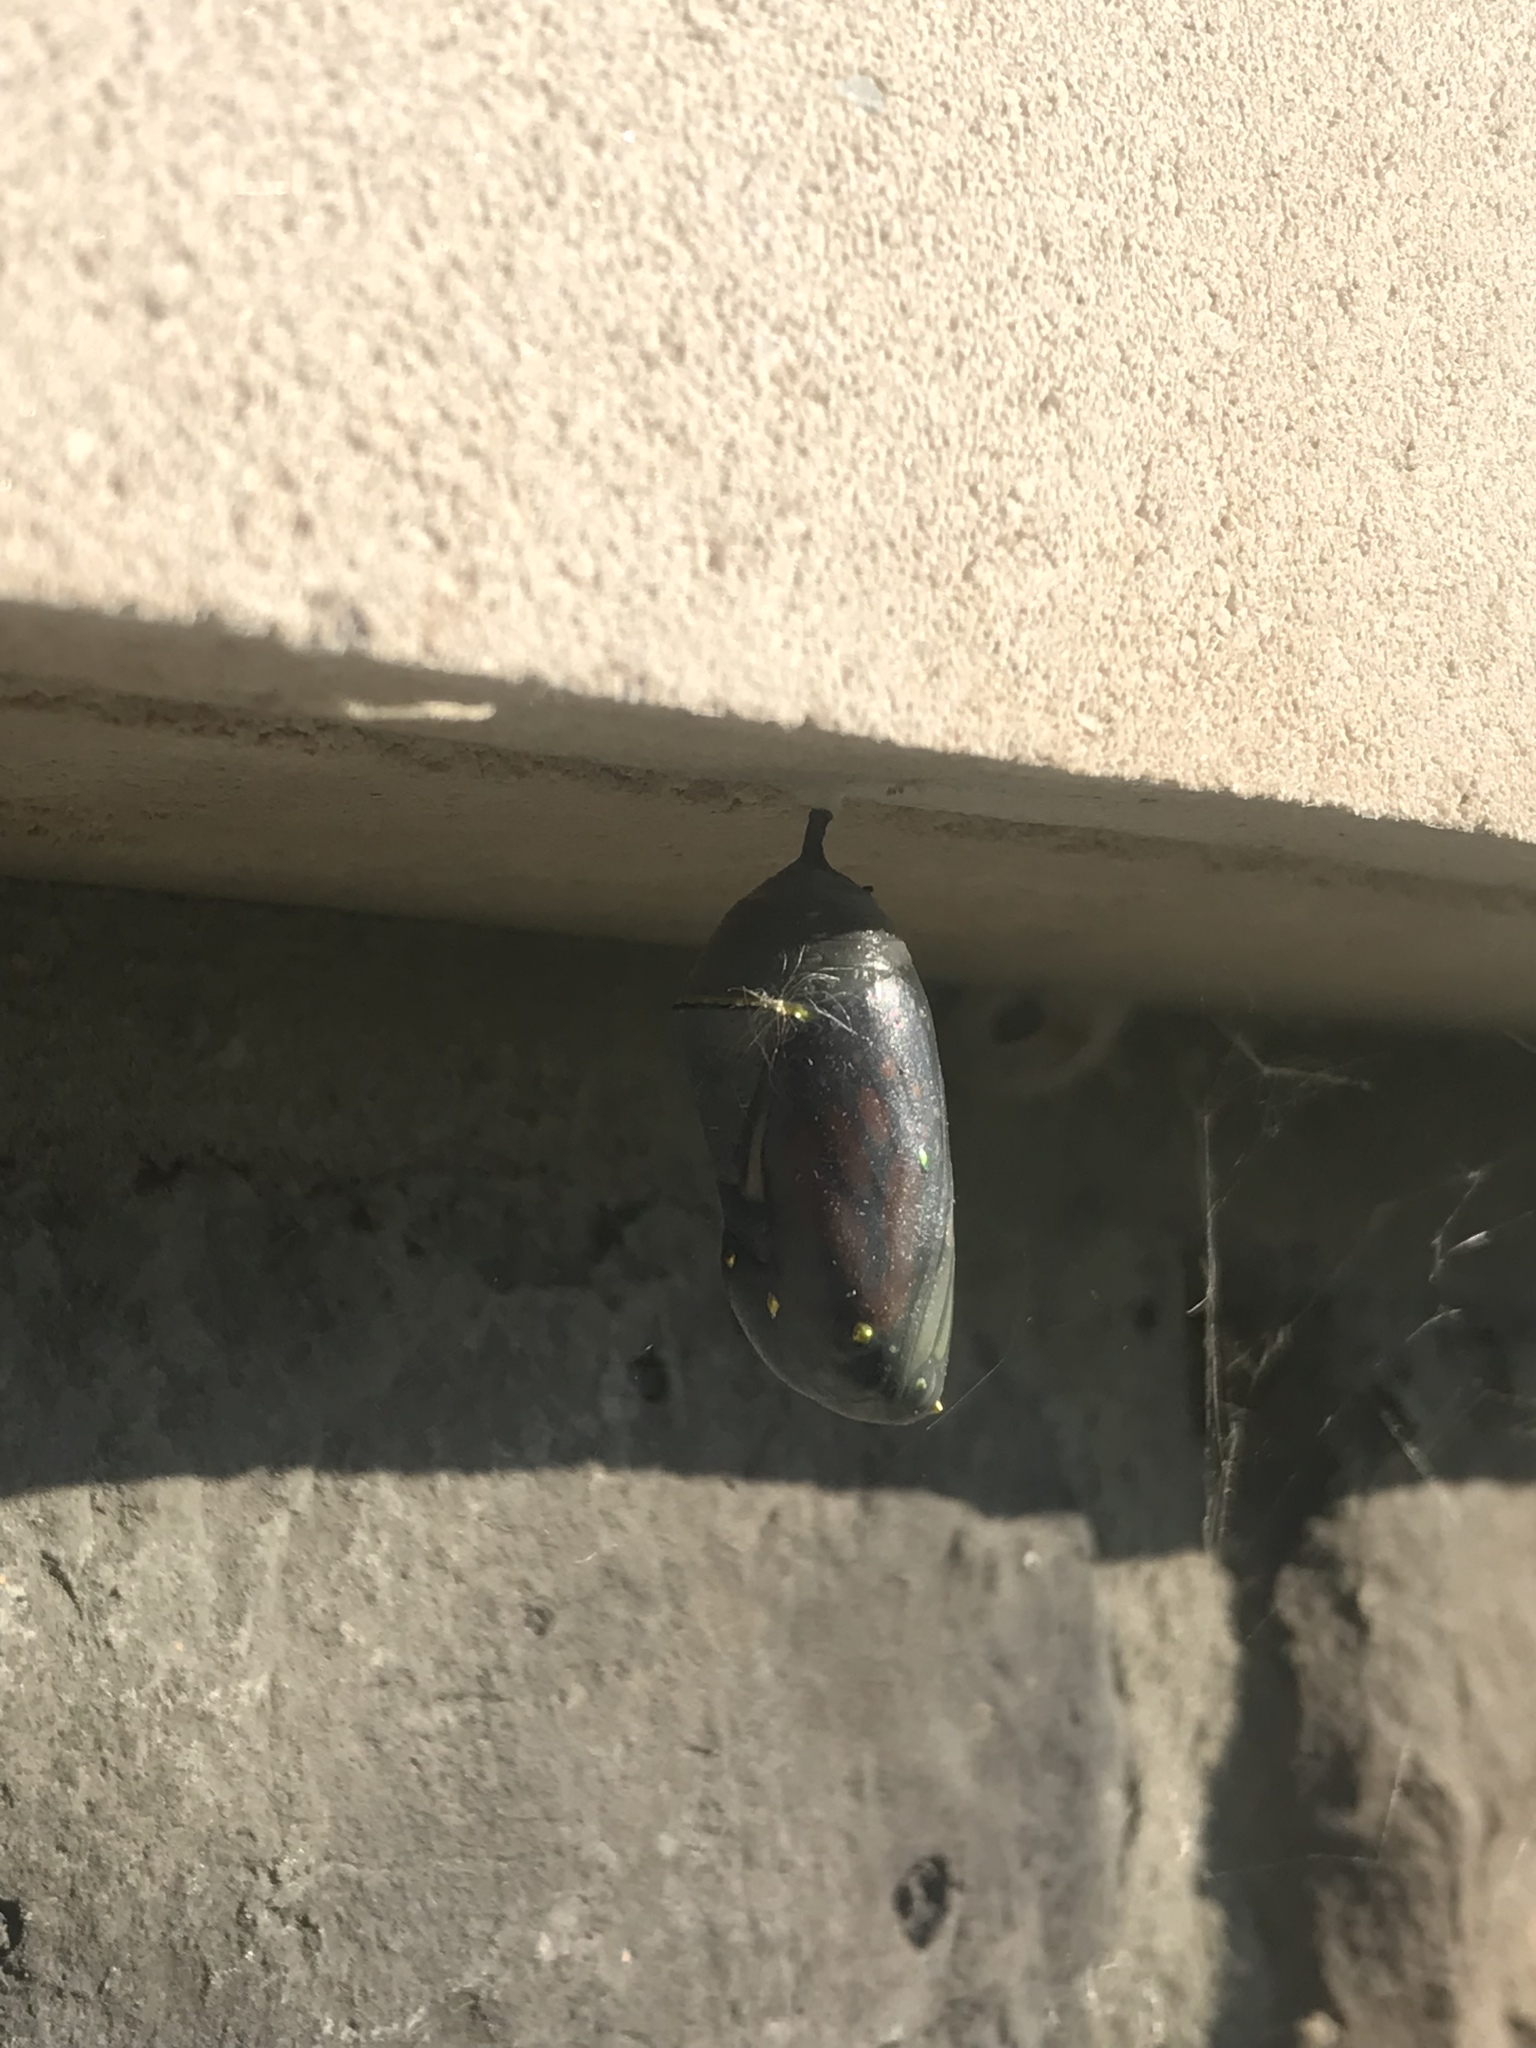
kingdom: Animalia
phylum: Arthropoda
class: Insecta
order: Lepidoptera
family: Nymphalidae
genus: Danaus
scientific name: Danaus plexippus
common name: Monarch
